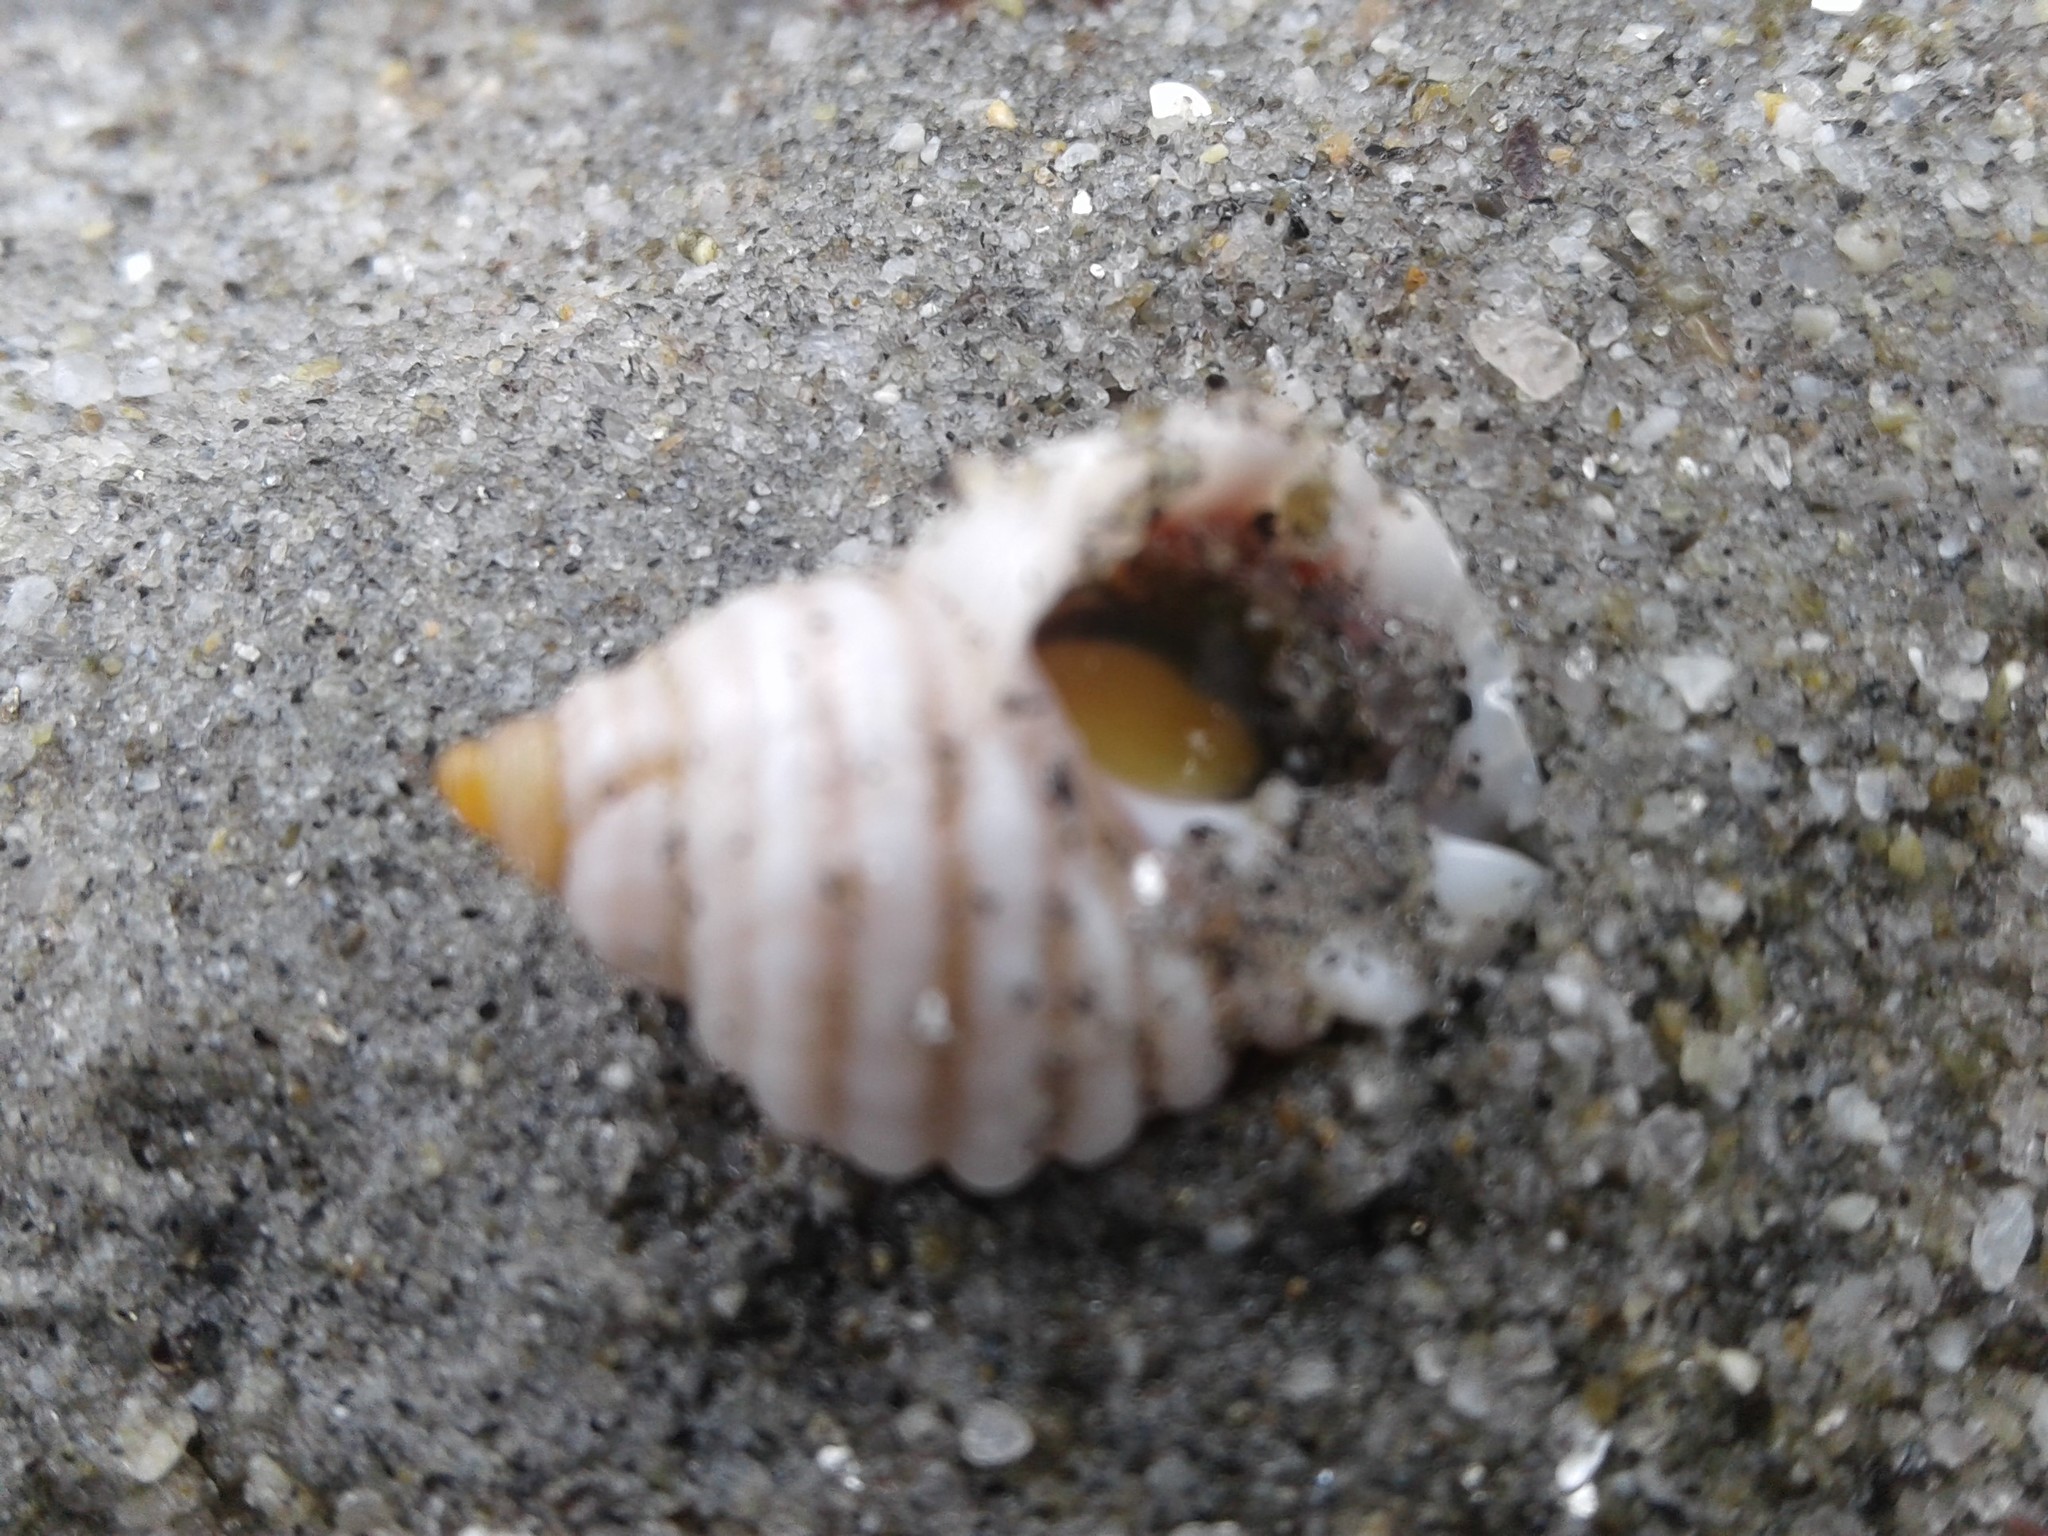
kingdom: Animalia
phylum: Mollusca
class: Gastropoda
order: Neogastropoda
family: Muricidae
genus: Paratrophon
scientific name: Paratrophon patens
